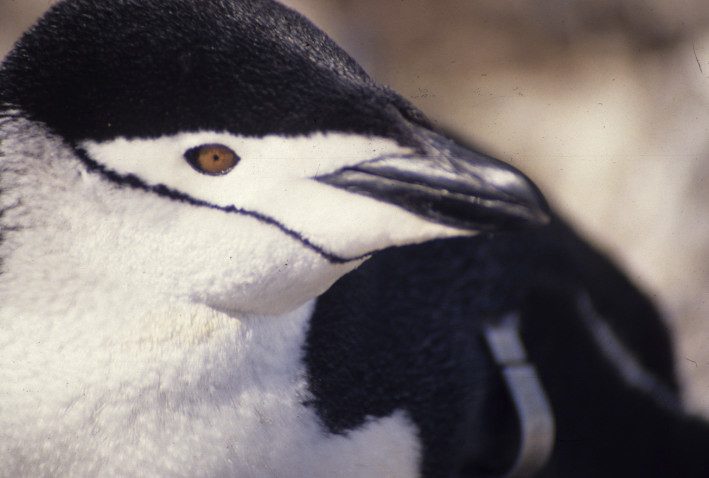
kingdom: Animalia
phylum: Chordata
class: Aves
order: Sphenisciformes
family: Spheniscidae
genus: Pygoscelis
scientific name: Pygoscelis antarcticus
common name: Chinstrap penguin
